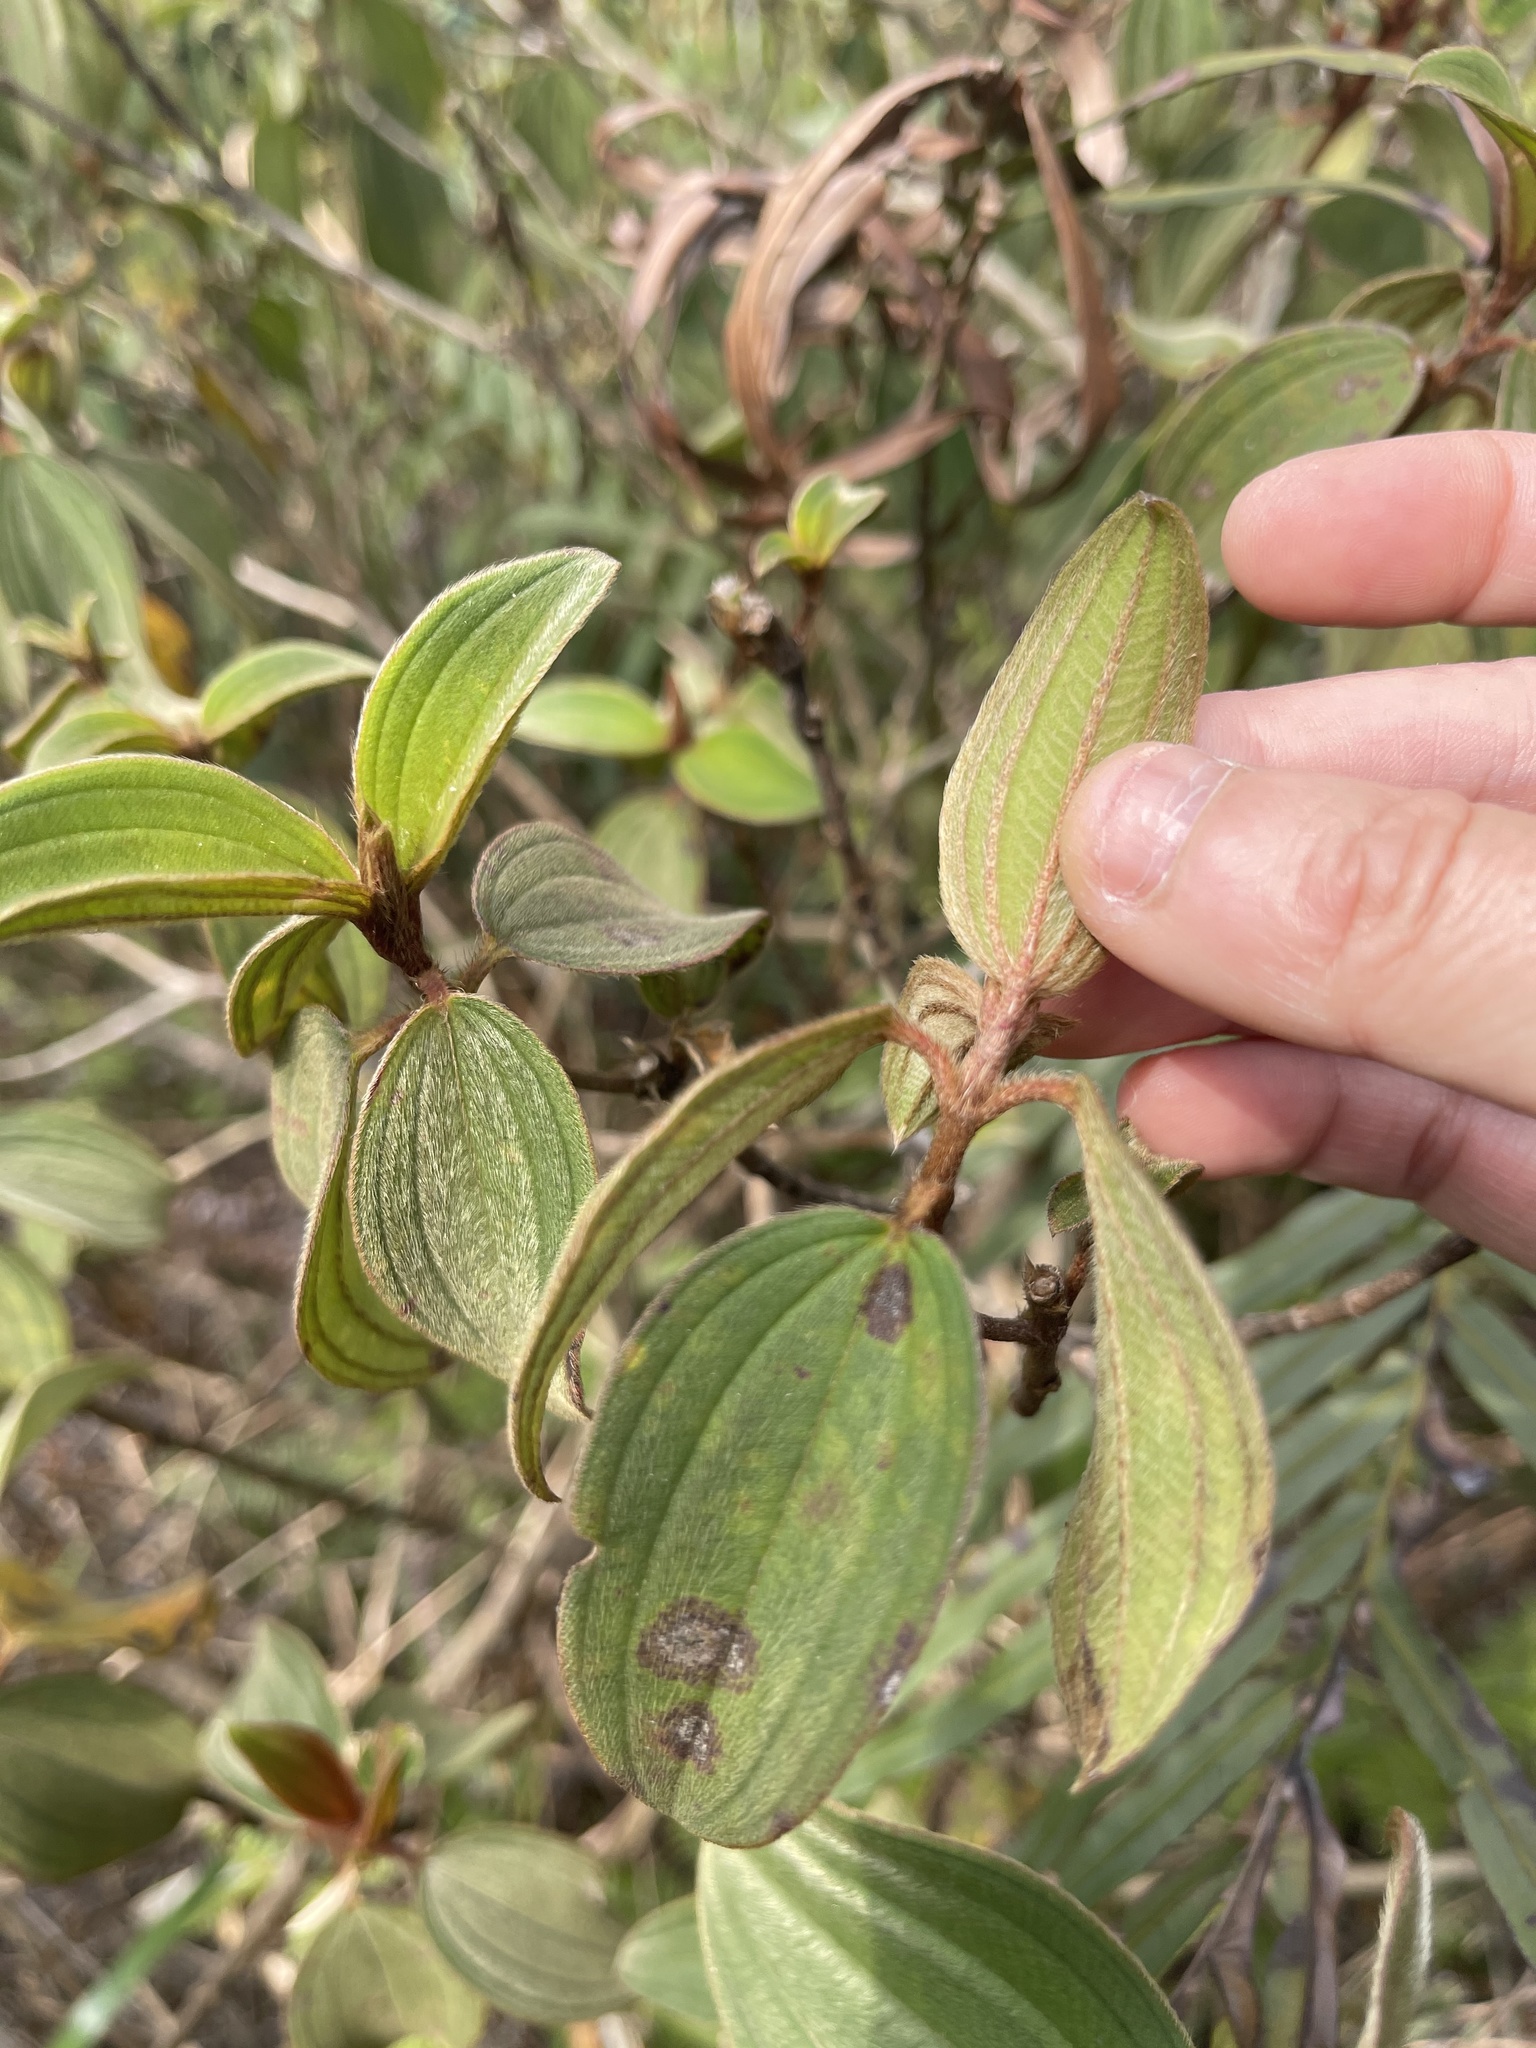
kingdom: Plantae
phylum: Tracheophyta
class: Magnoliopsida
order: Myrtales
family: Melastomataceae
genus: Melastoma
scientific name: Melastoma malabathricum
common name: Indian-rhododendron
